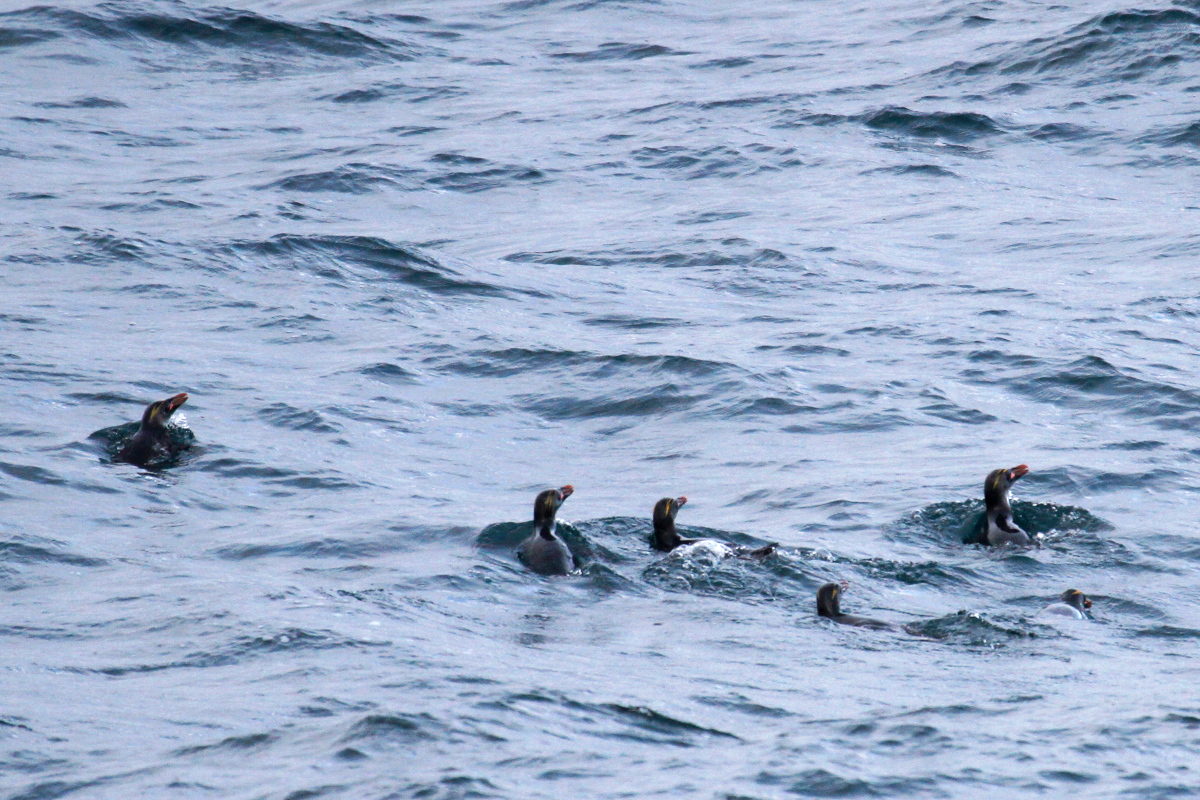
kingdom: Animalia
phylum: Chordata
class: Aves
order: Sphenisciformes
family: Spheniscidae
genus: Eudyptes
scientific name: Eudyptes chrysolophus
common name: Macaroni penguin
